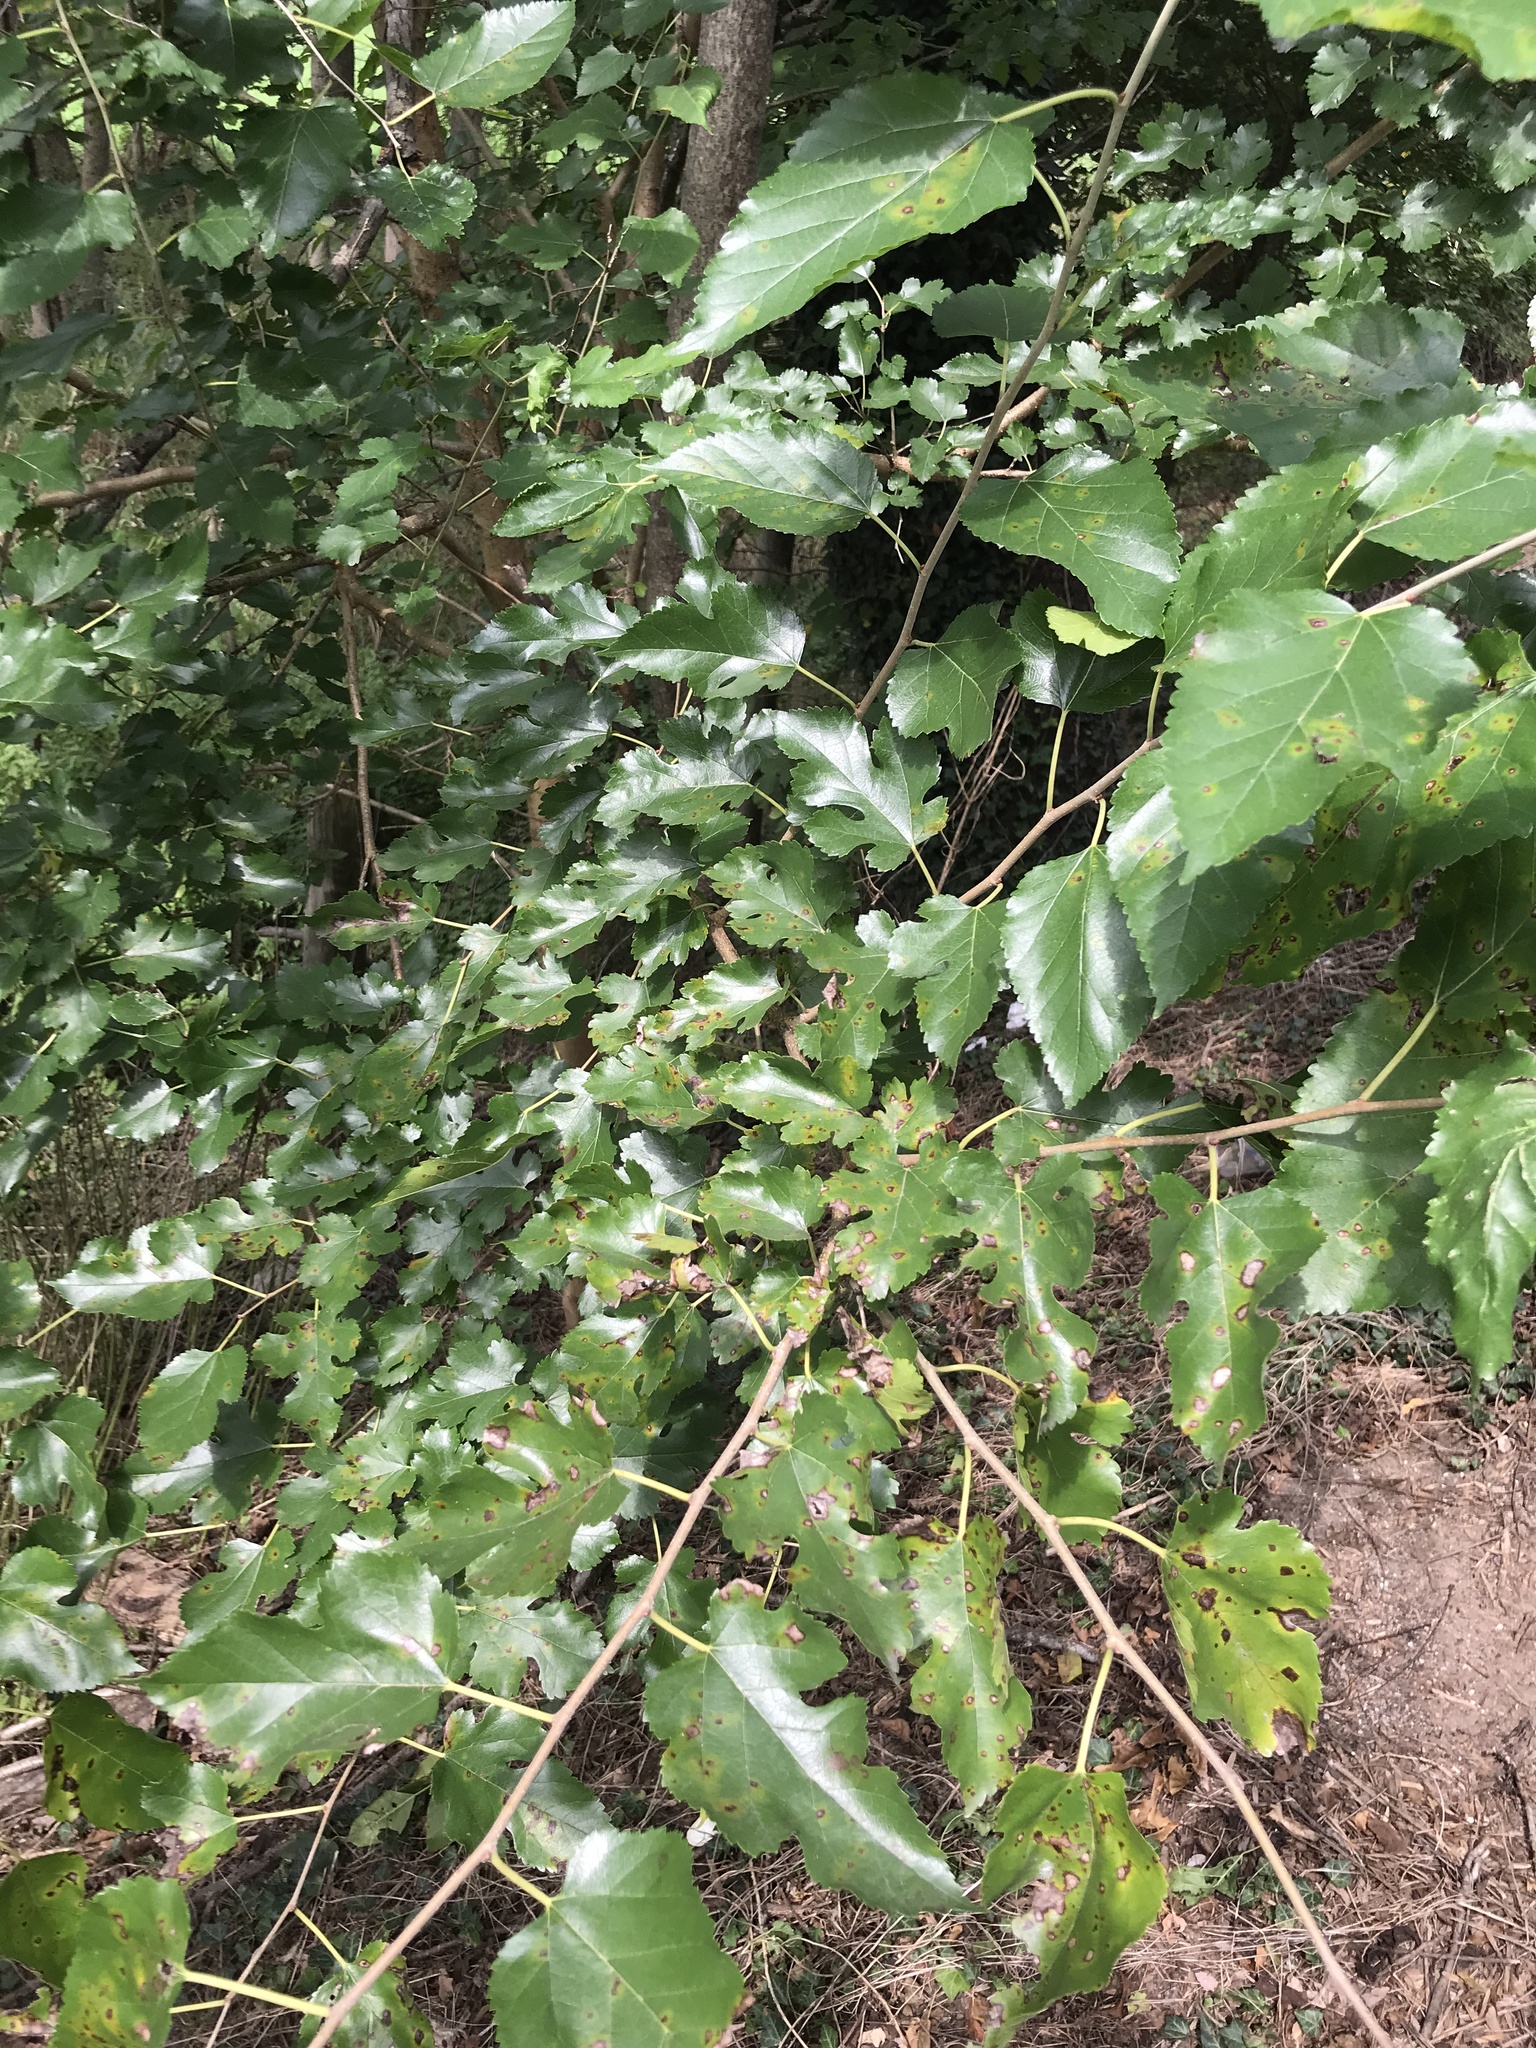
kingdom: Plantae
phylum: Tracheophyta
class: Magnoliopsida
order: Rosales
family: Moraceae
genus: Morus
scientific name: Morus alba
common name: White mulberry
